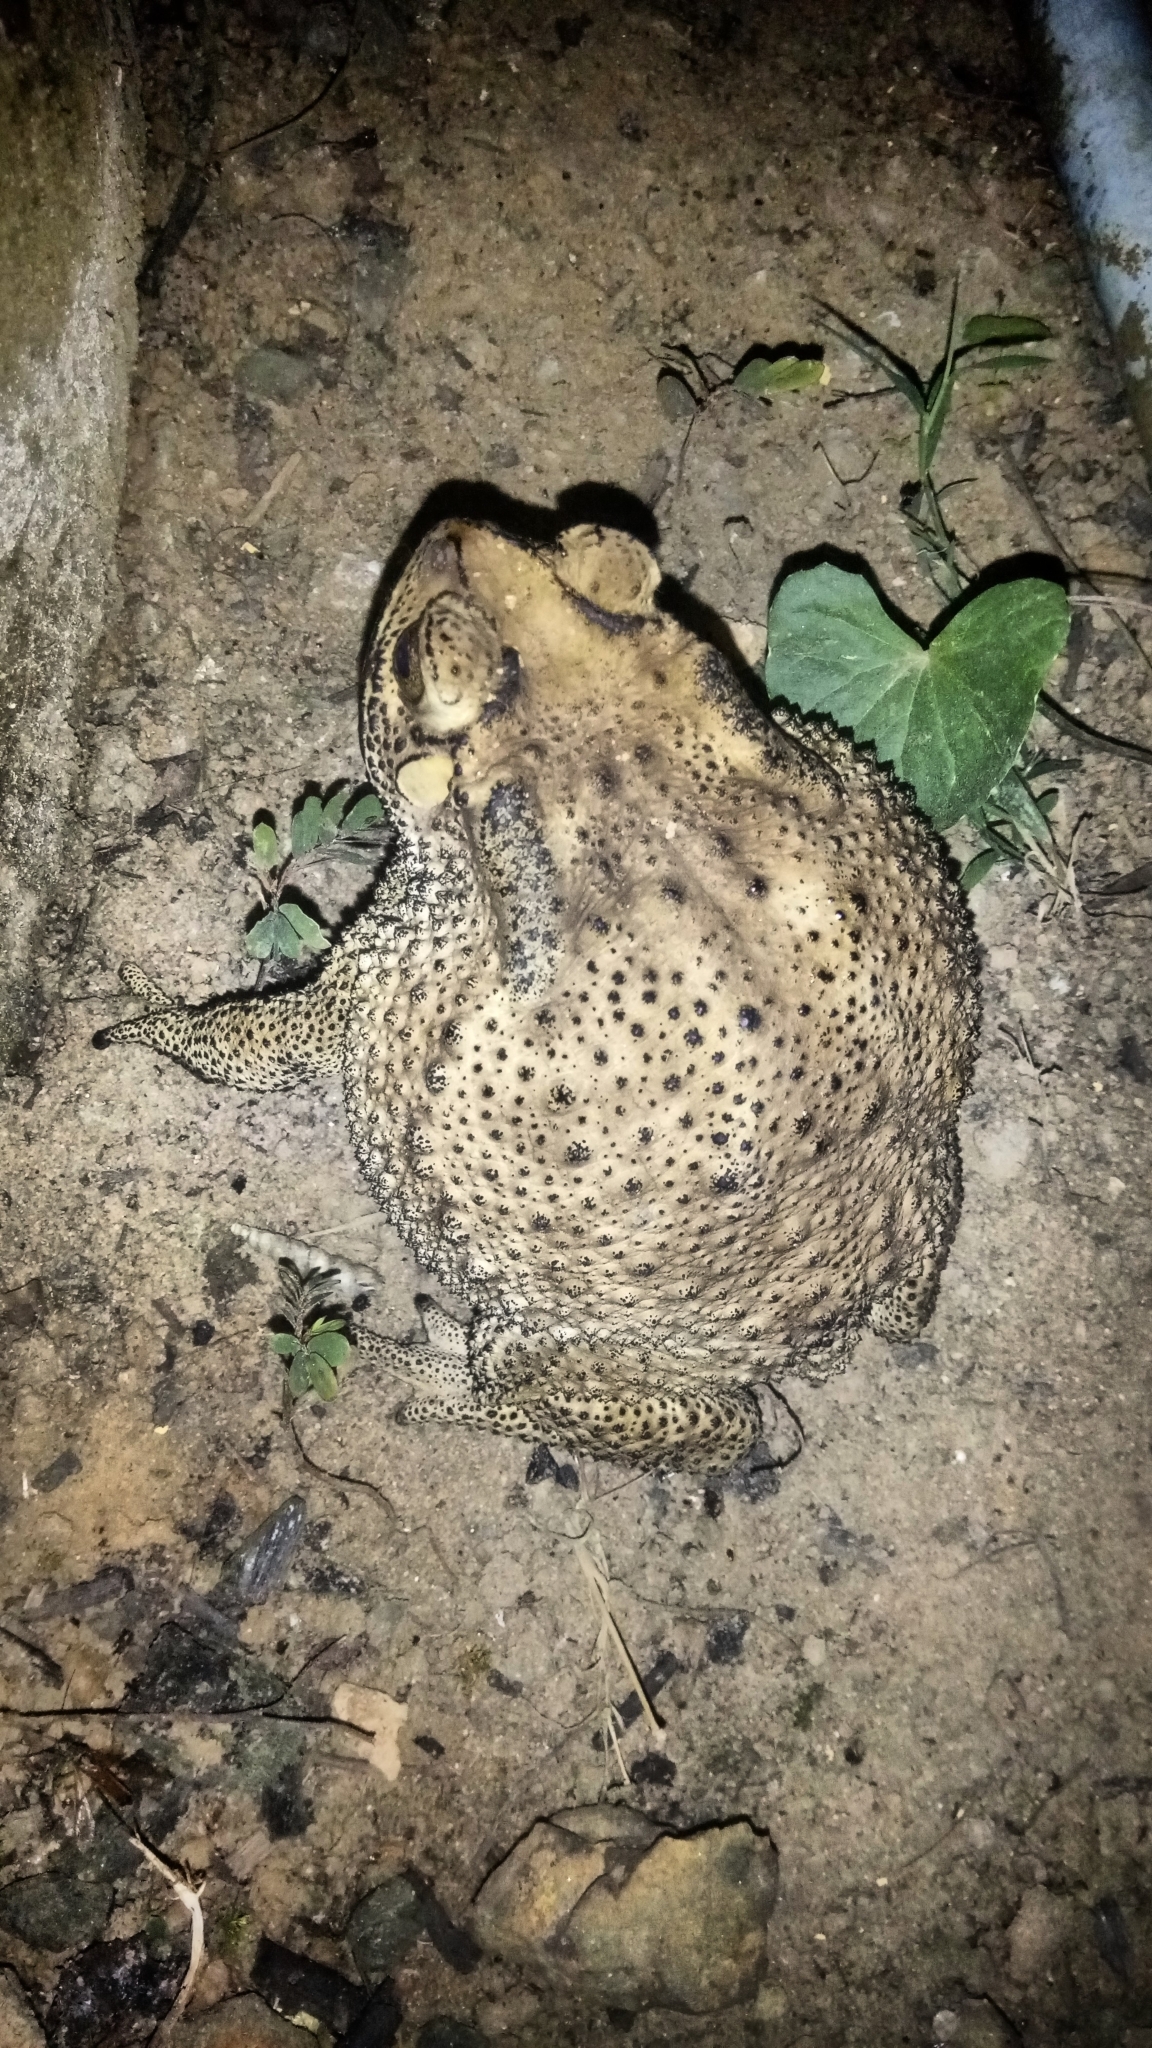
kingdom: Animalia
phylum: Chordata
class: Amphibia
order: Anura
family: Bufonidae
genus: Duttaphrynus
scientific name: Duttaphrynus melanostictus
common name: Common sunda toad
